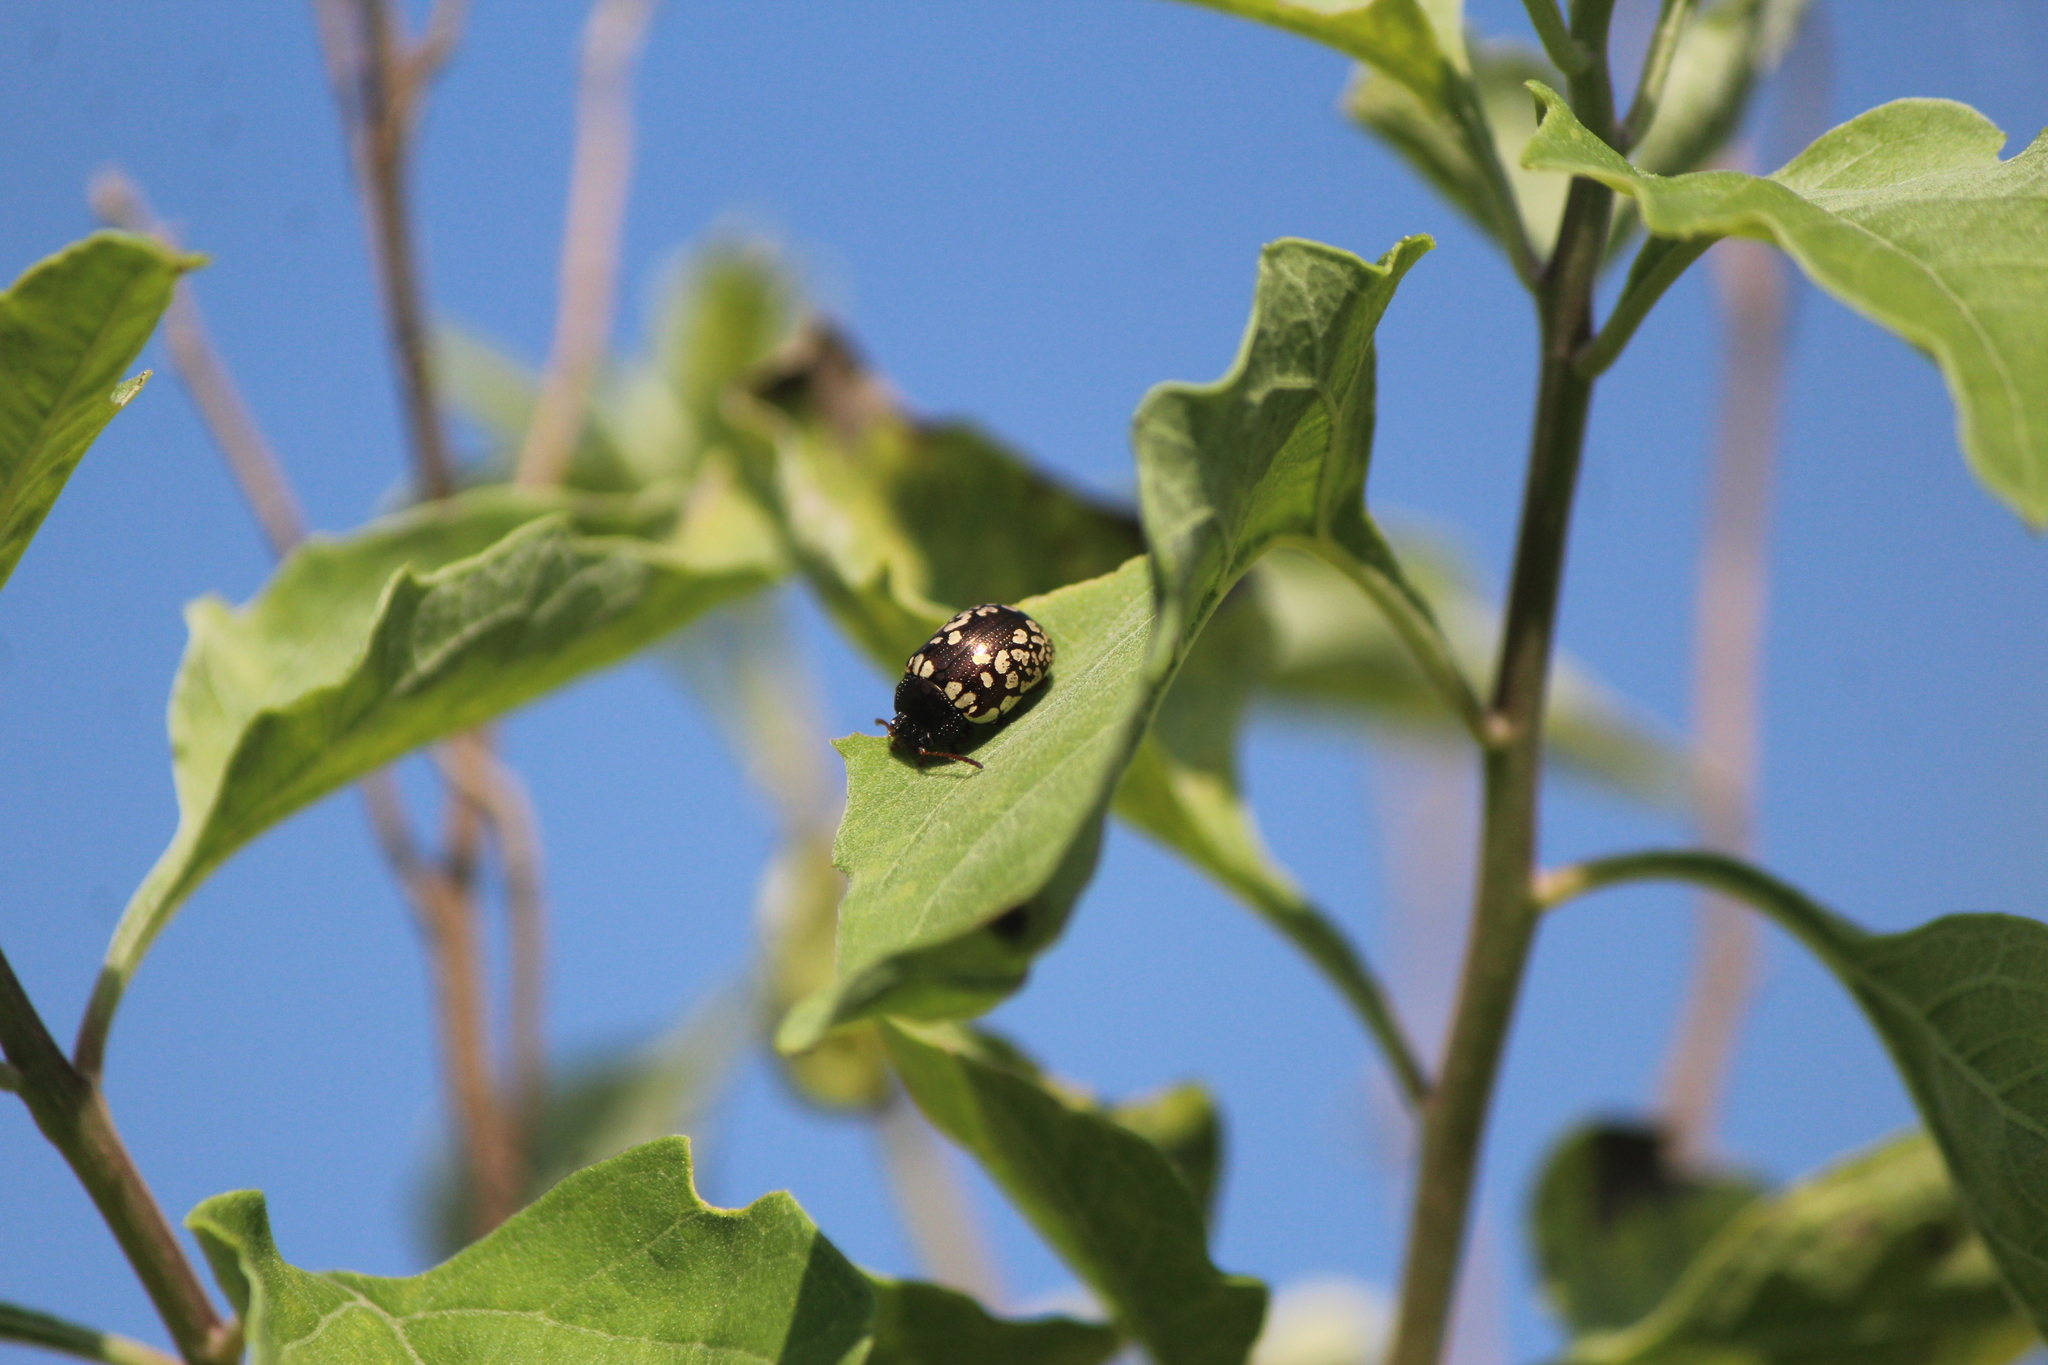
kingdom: Animalia
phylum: Arthropoda
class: Insecta
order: Coleoptera
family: Chrysomelidae
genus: Calligrapha
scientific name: Calligrapha barda
